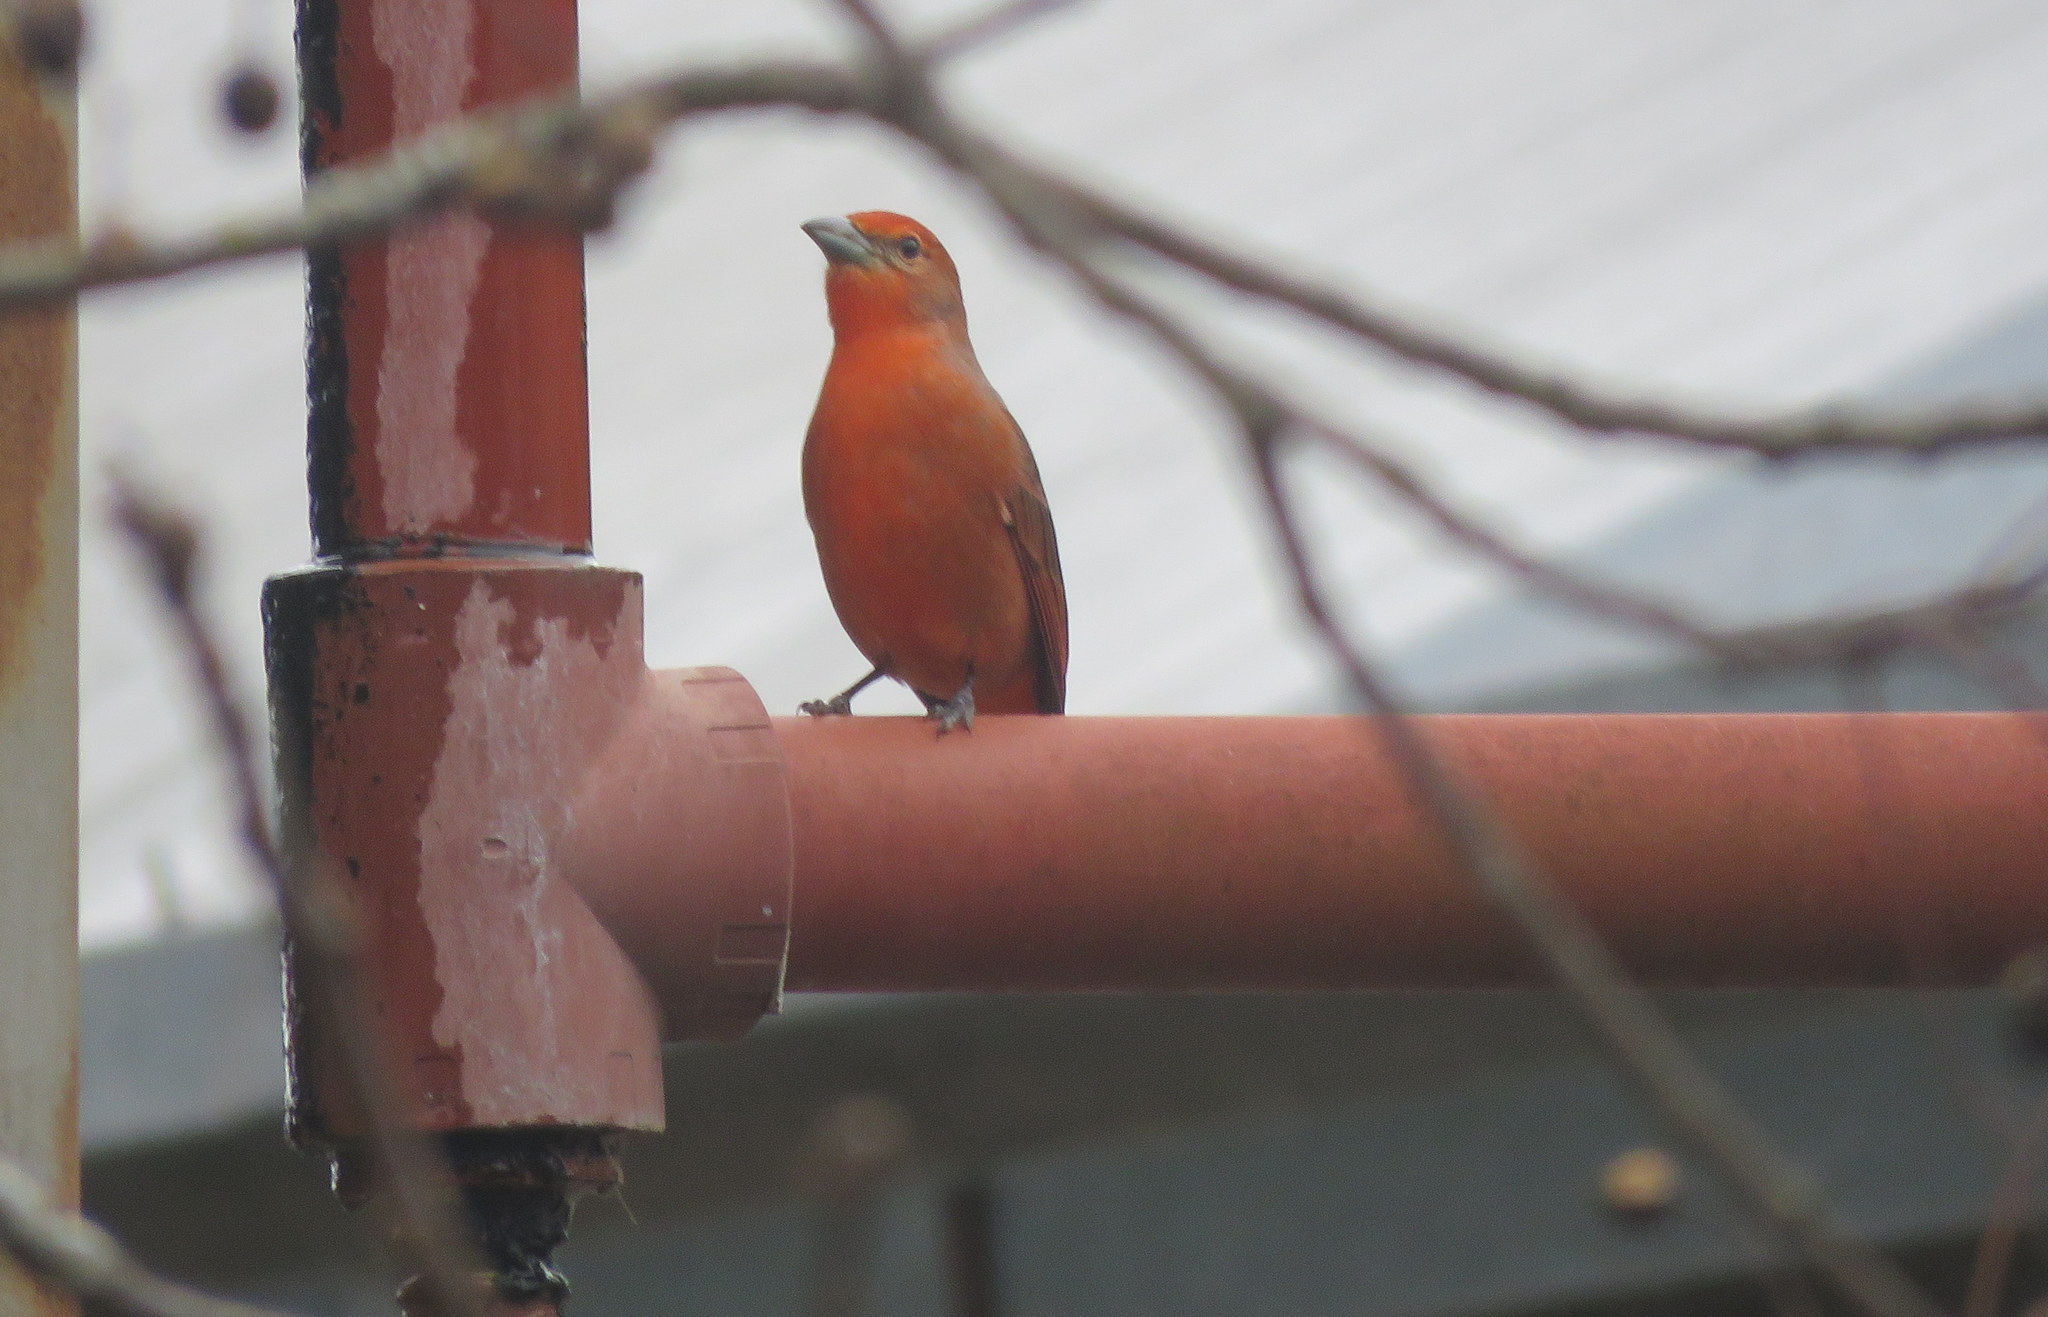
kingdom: Animalia
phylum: Chordata
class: Aves
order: Passeriformes
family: Cardinalidae
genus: Piranga
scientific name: Piranga flava
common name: Red tanager
